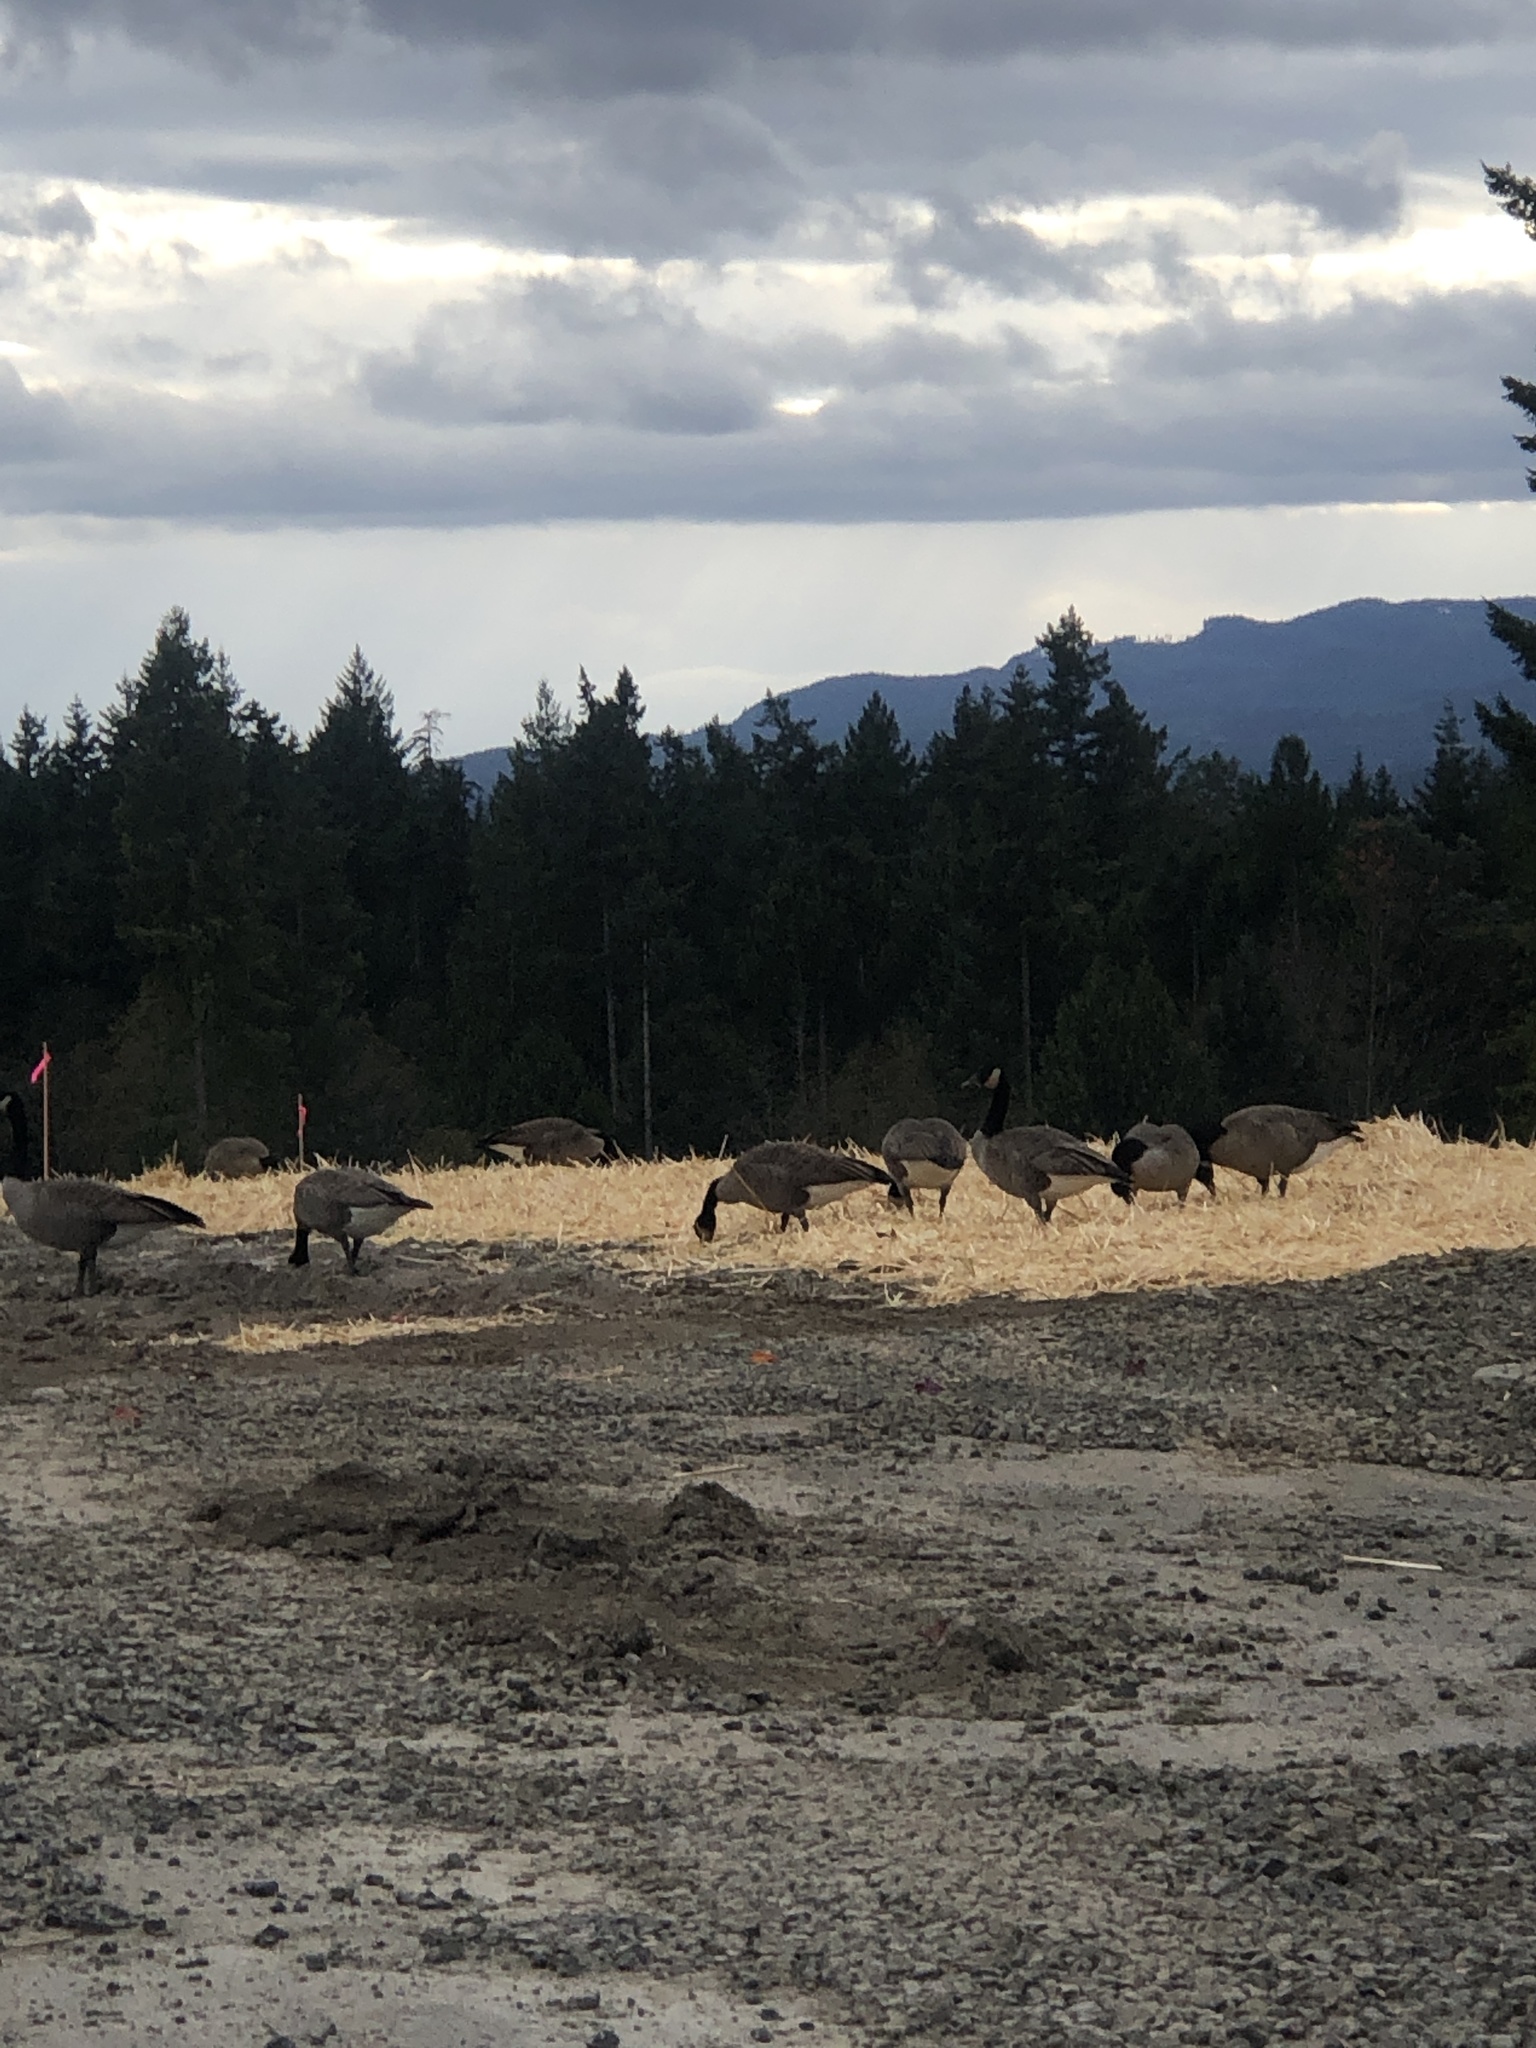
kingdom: Animalia
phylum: Chordata
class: Aves
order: Anseriformes
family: Anatidae
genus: Branta
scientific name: Branta canadensis
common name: Canada goose
